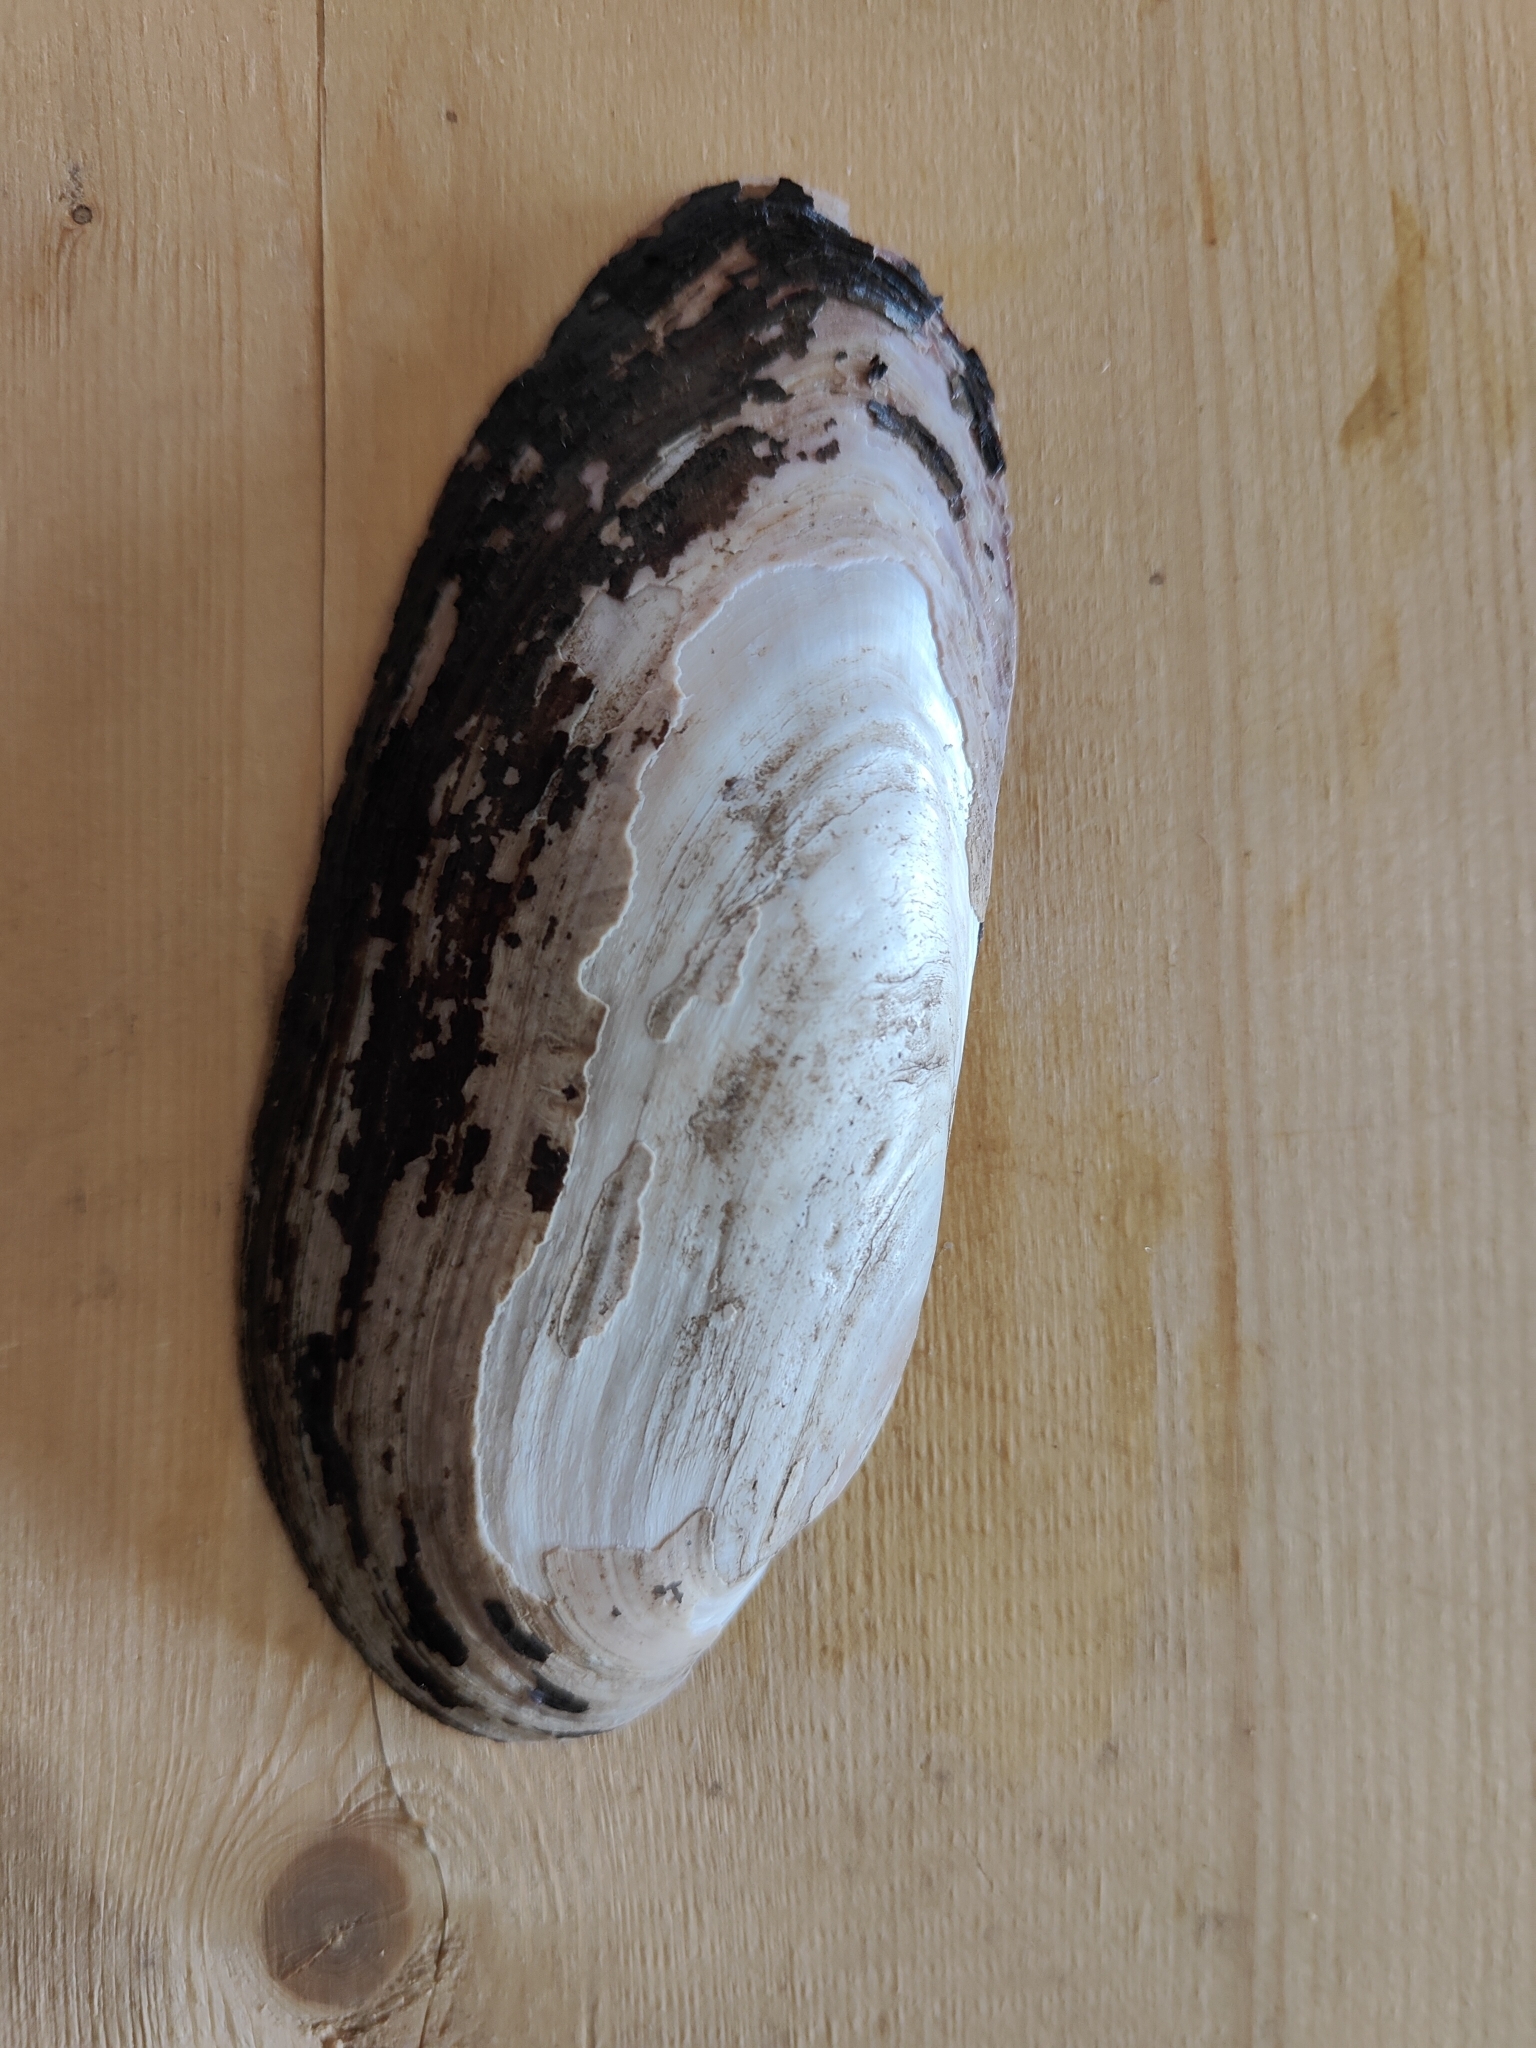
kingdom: Animalia
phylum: Mollusca
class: Bivalvia
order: Unionida
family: Unionidae
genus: Ligumia
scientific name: Ligumia recta
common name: Black sandshell
